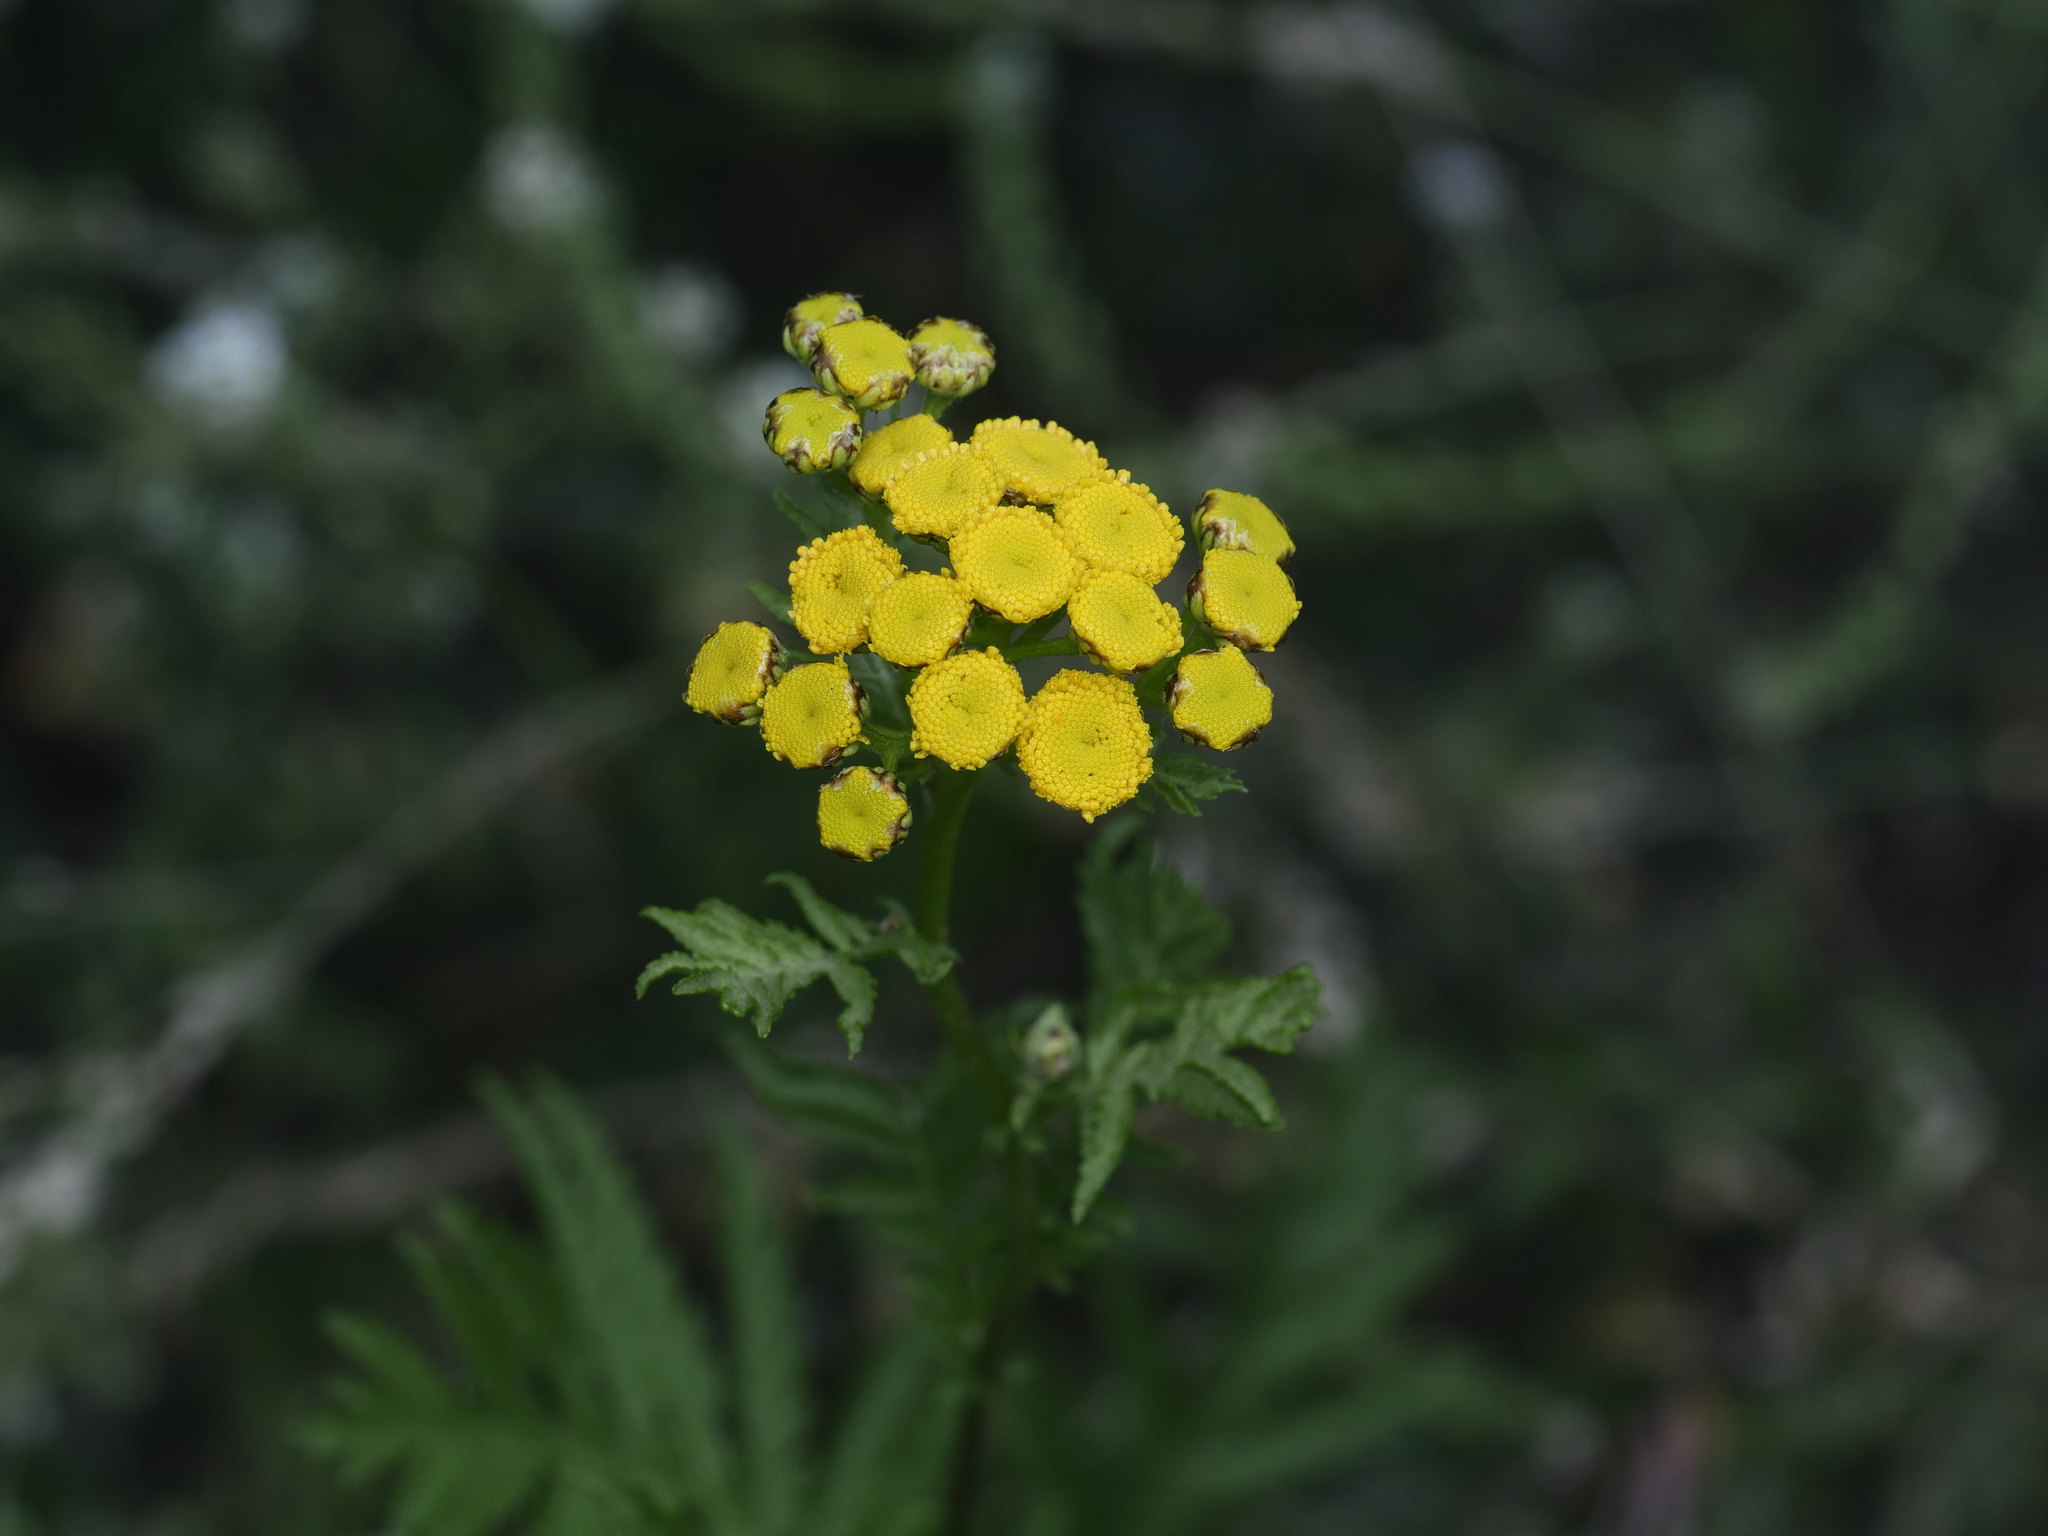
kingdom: Plantae
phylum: Tracheophyta
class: Magnoliopsida
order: Asterales
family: Asteraceae
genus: Tanacetum
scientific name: Tanacetum vulgare
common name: Common tansy
